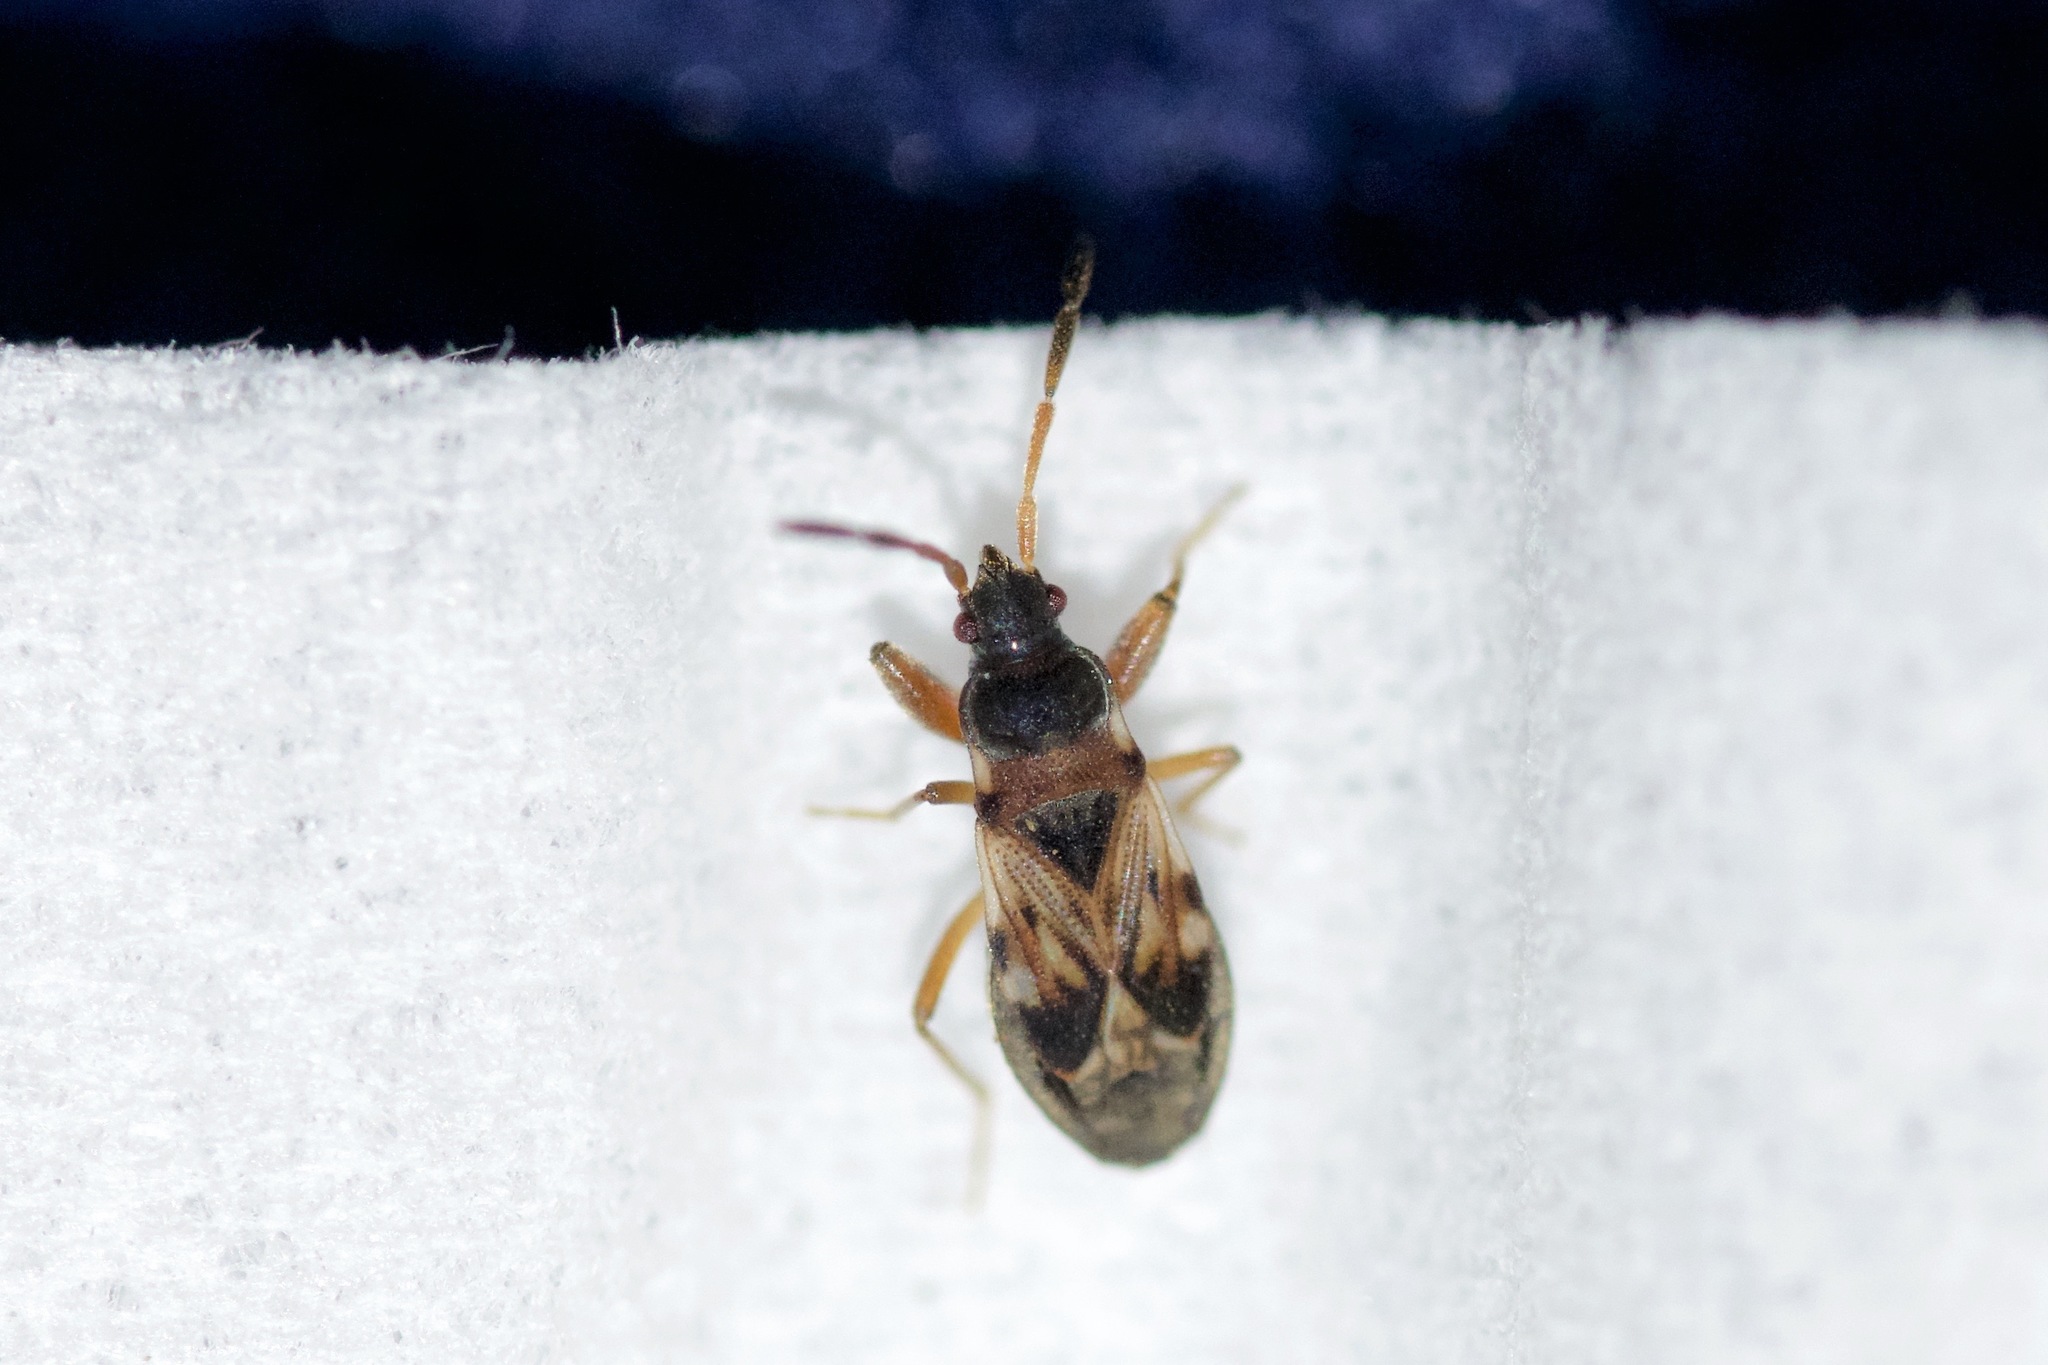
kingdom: Animalia
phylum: Arthropoda
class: Insecta
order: Hemiptera
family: Rhyparochromidae
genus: Scolopostethus
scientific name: Scolopostethus thomsoni
